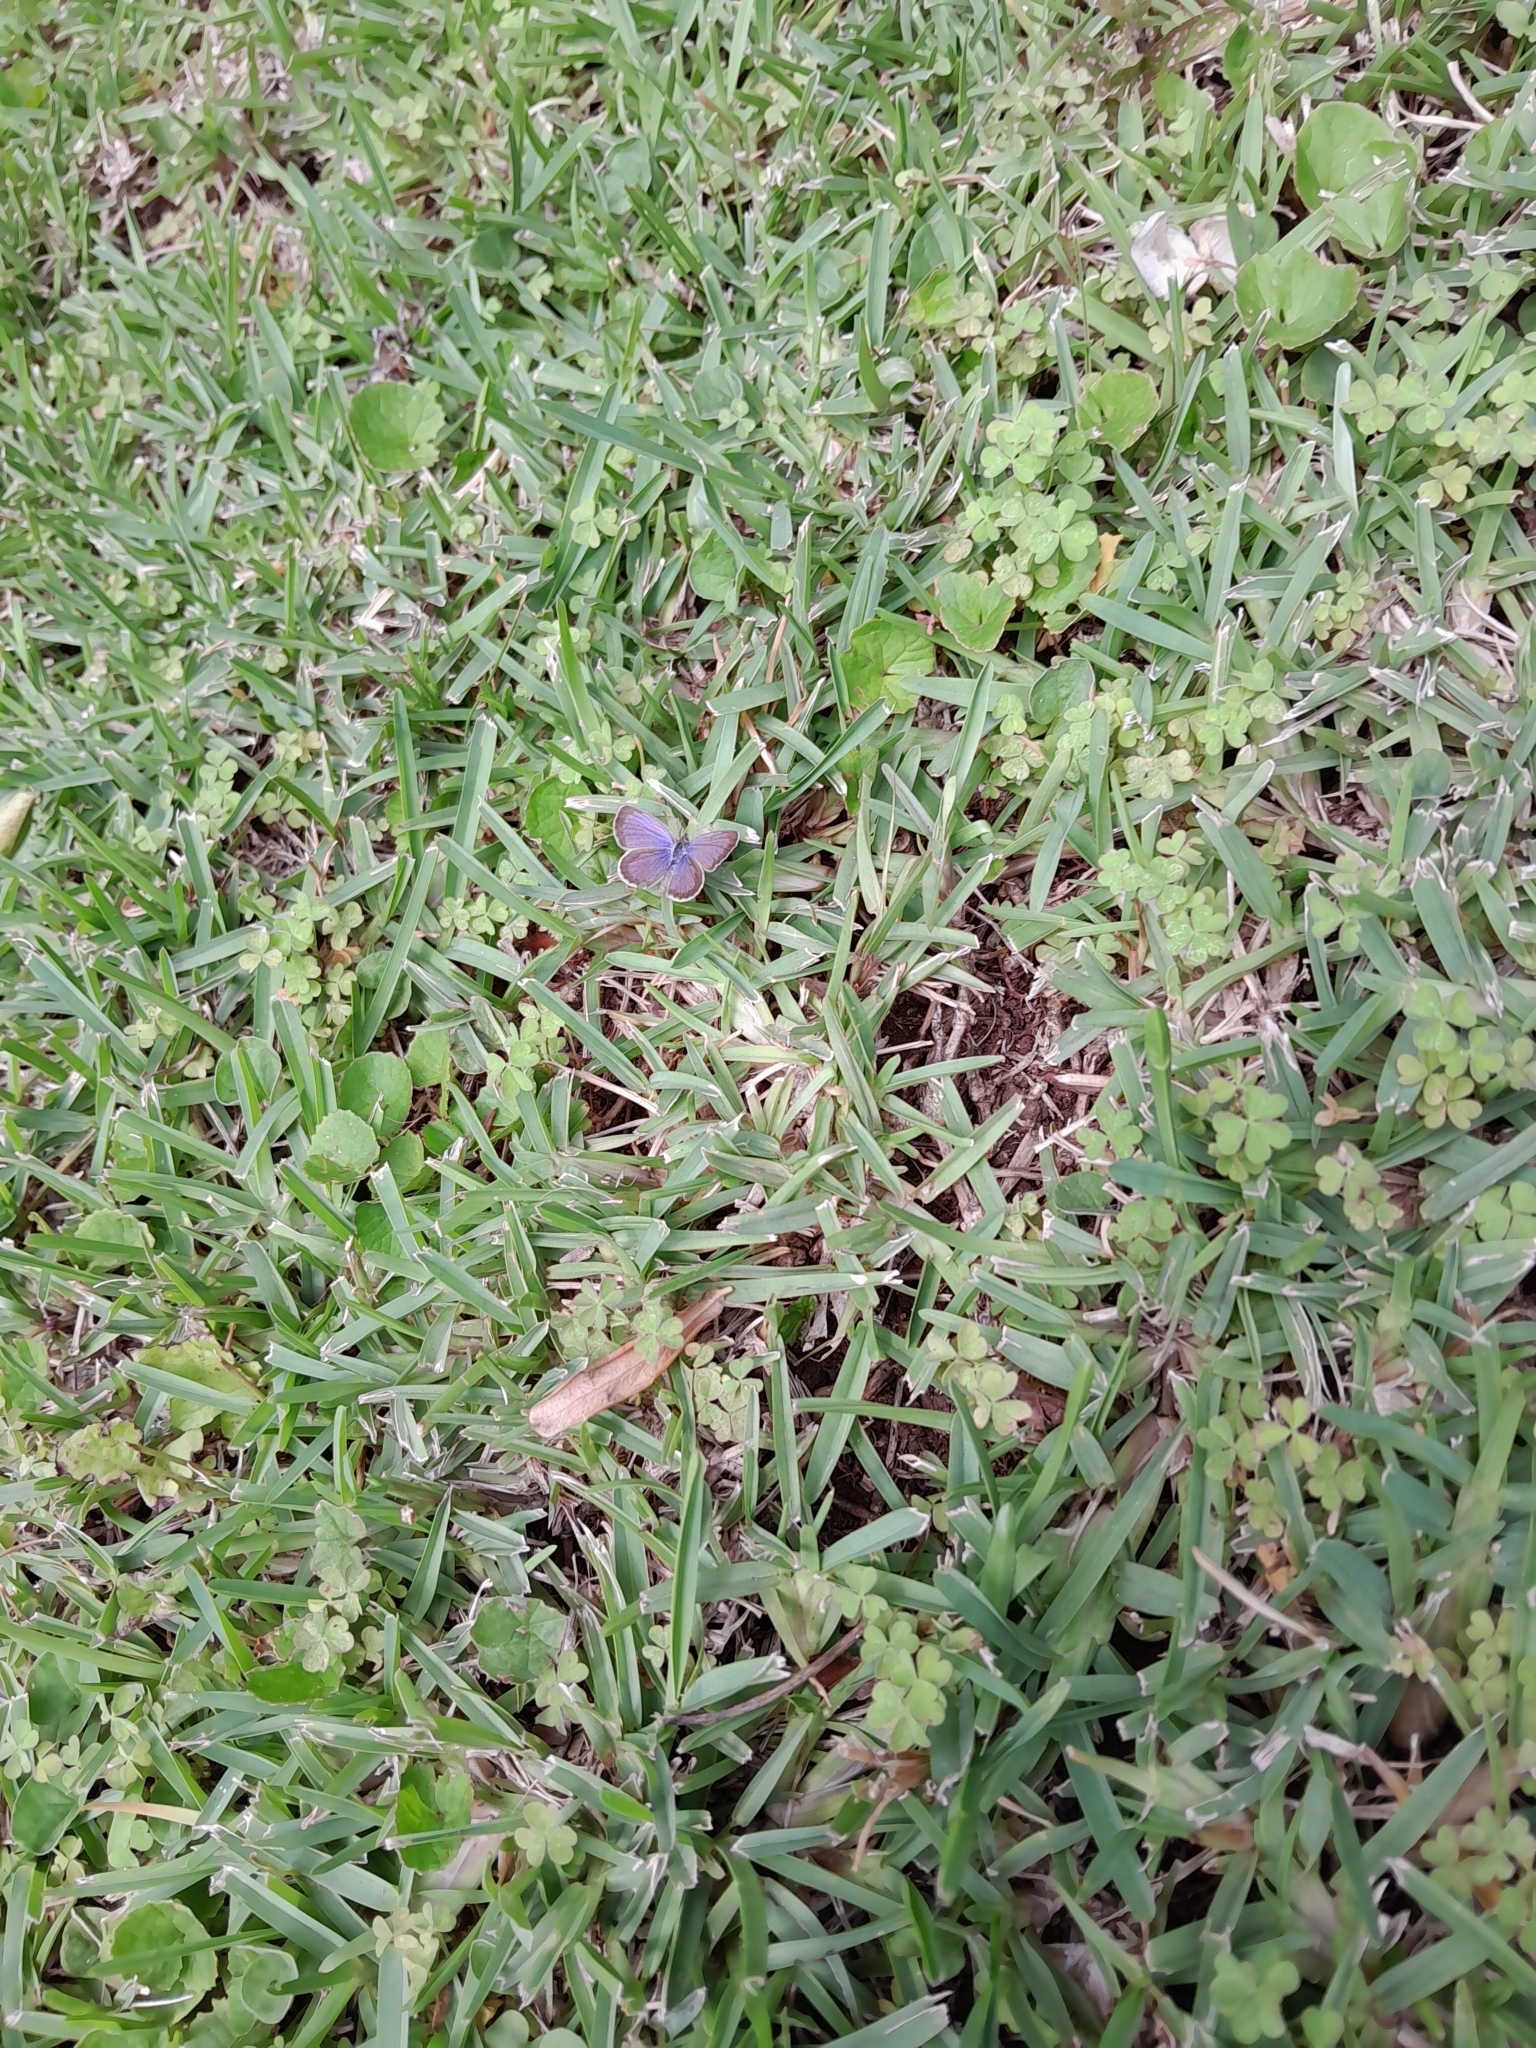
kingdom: Animalia
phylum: Arthropoda
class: Insecta
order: Lepidoptera
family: Lycaenidae
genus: Zizeeria
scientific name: Zizeeria knysna
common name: African grass blue
